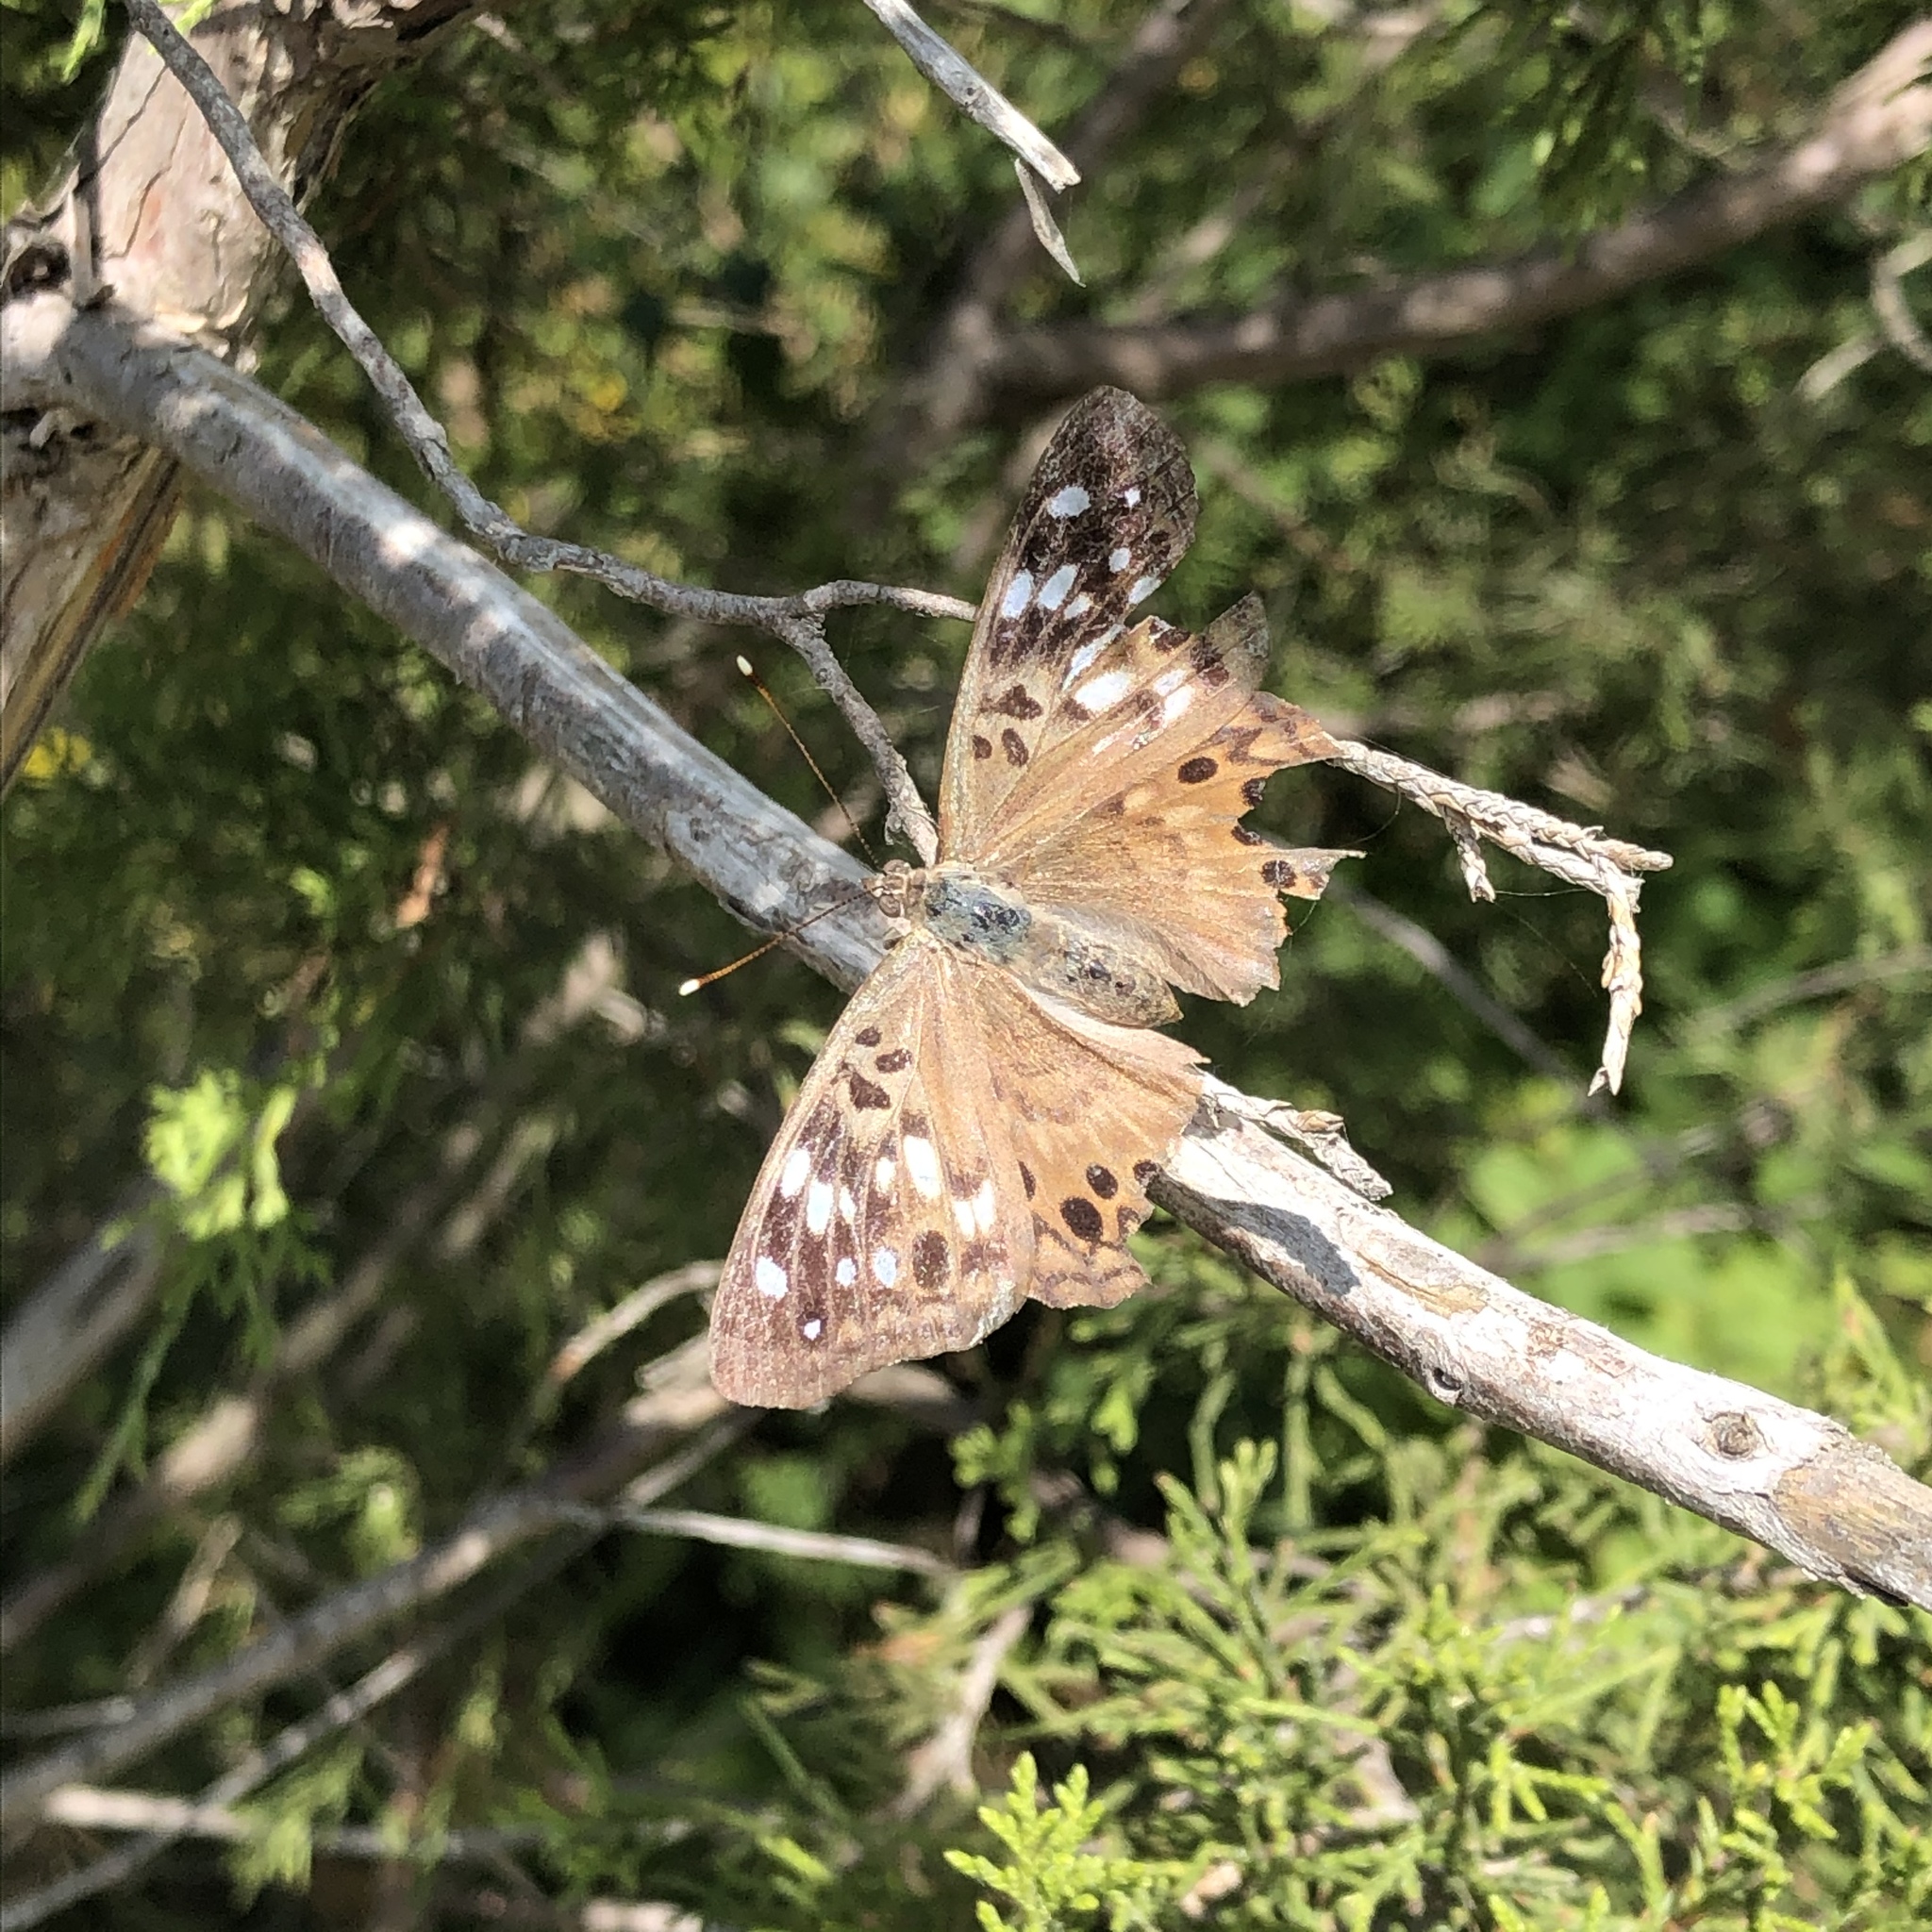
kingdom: Animalia
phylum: Arthropoda
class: Insecta
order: Lepidoptera
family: Nymphalidae
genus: Asterocampa
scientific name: Asterocampa celtis
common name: Hackberry emperor
